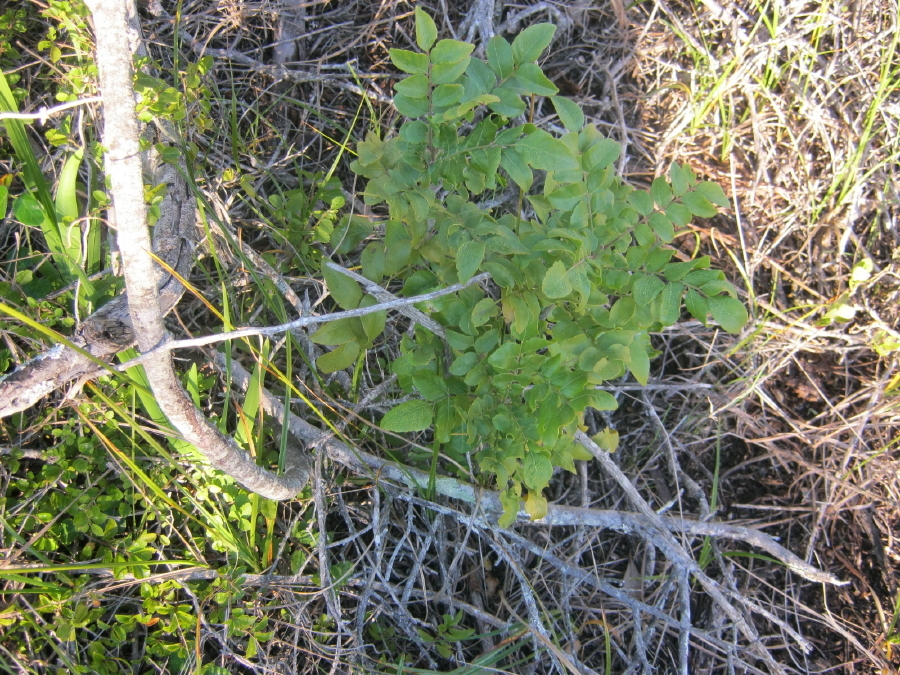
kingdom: Plantae
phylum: Tracheophyta
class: Magnoliopsida
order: Sapindales
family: Rutaceae
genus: Clausena
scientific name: Clausena anisata
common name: Horsewood
